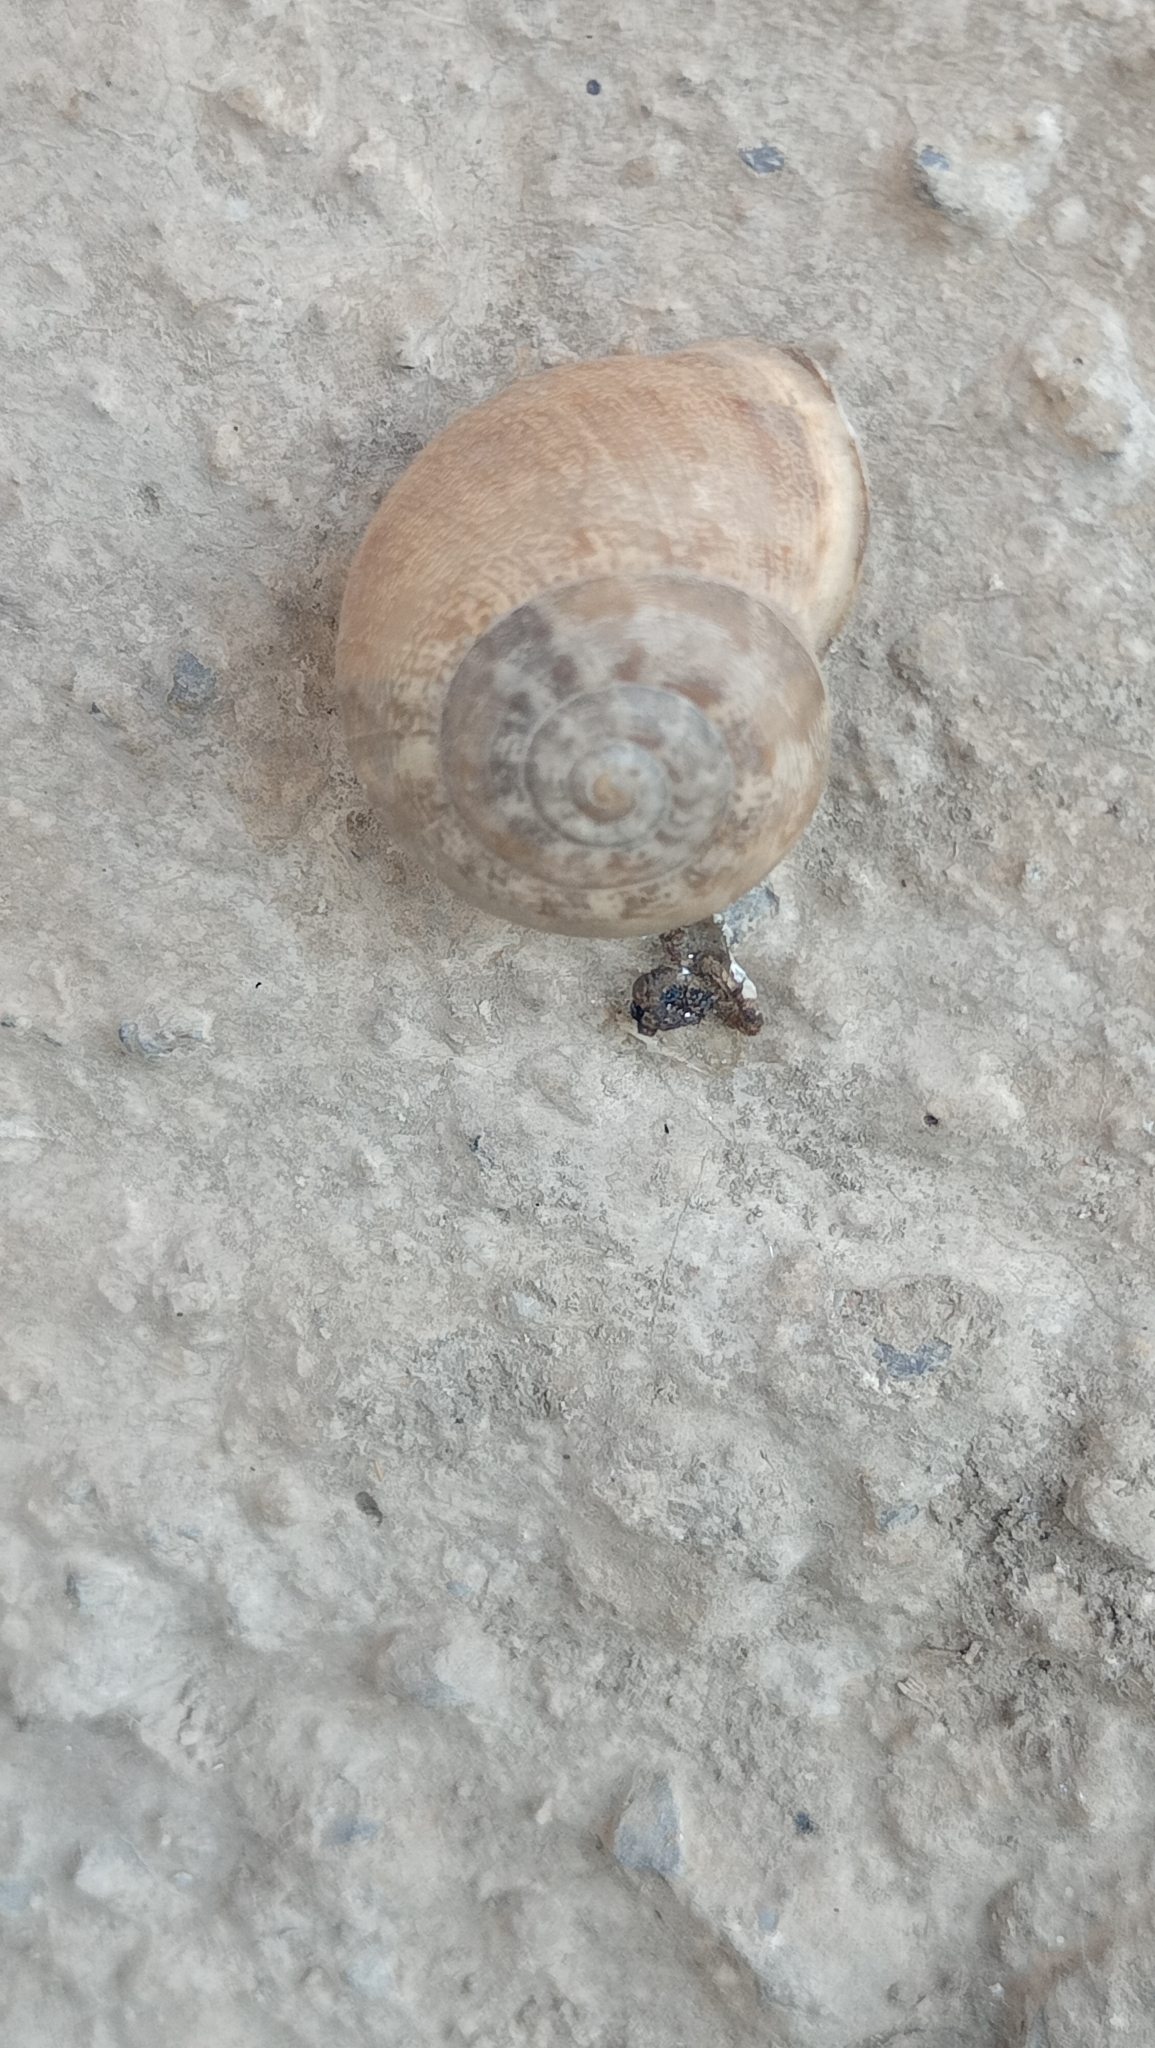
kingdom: Animalia
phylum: Mollusca
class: Gastropoda
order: Stylommatophora
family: Helicidae
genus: Eobania
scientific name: Eobania vermiculata
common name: Chocolateband snail
